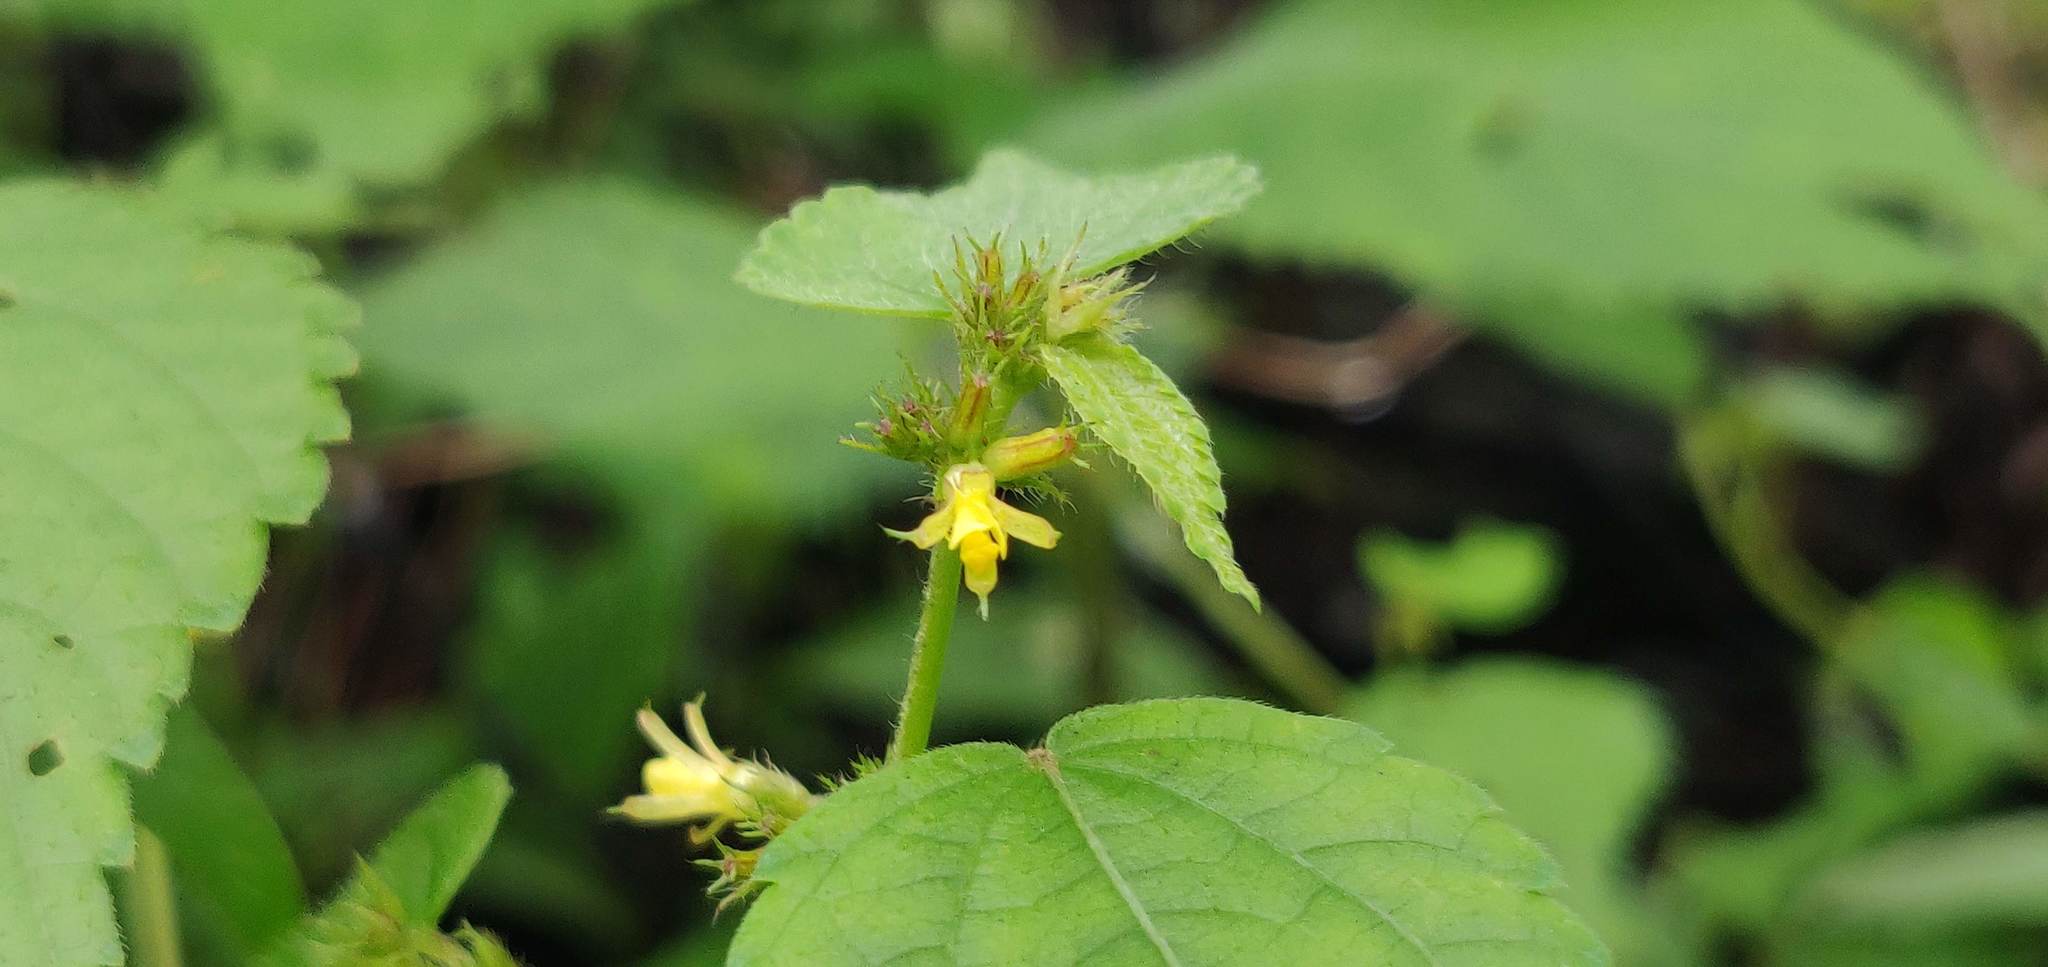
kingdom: Plantae
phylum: Tracheophyta
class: Magnoliopsida
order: Malvales
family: Malvaceae
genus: Triumfetta
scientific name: Triumfetta rhomboidea
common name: Diamond burbark
